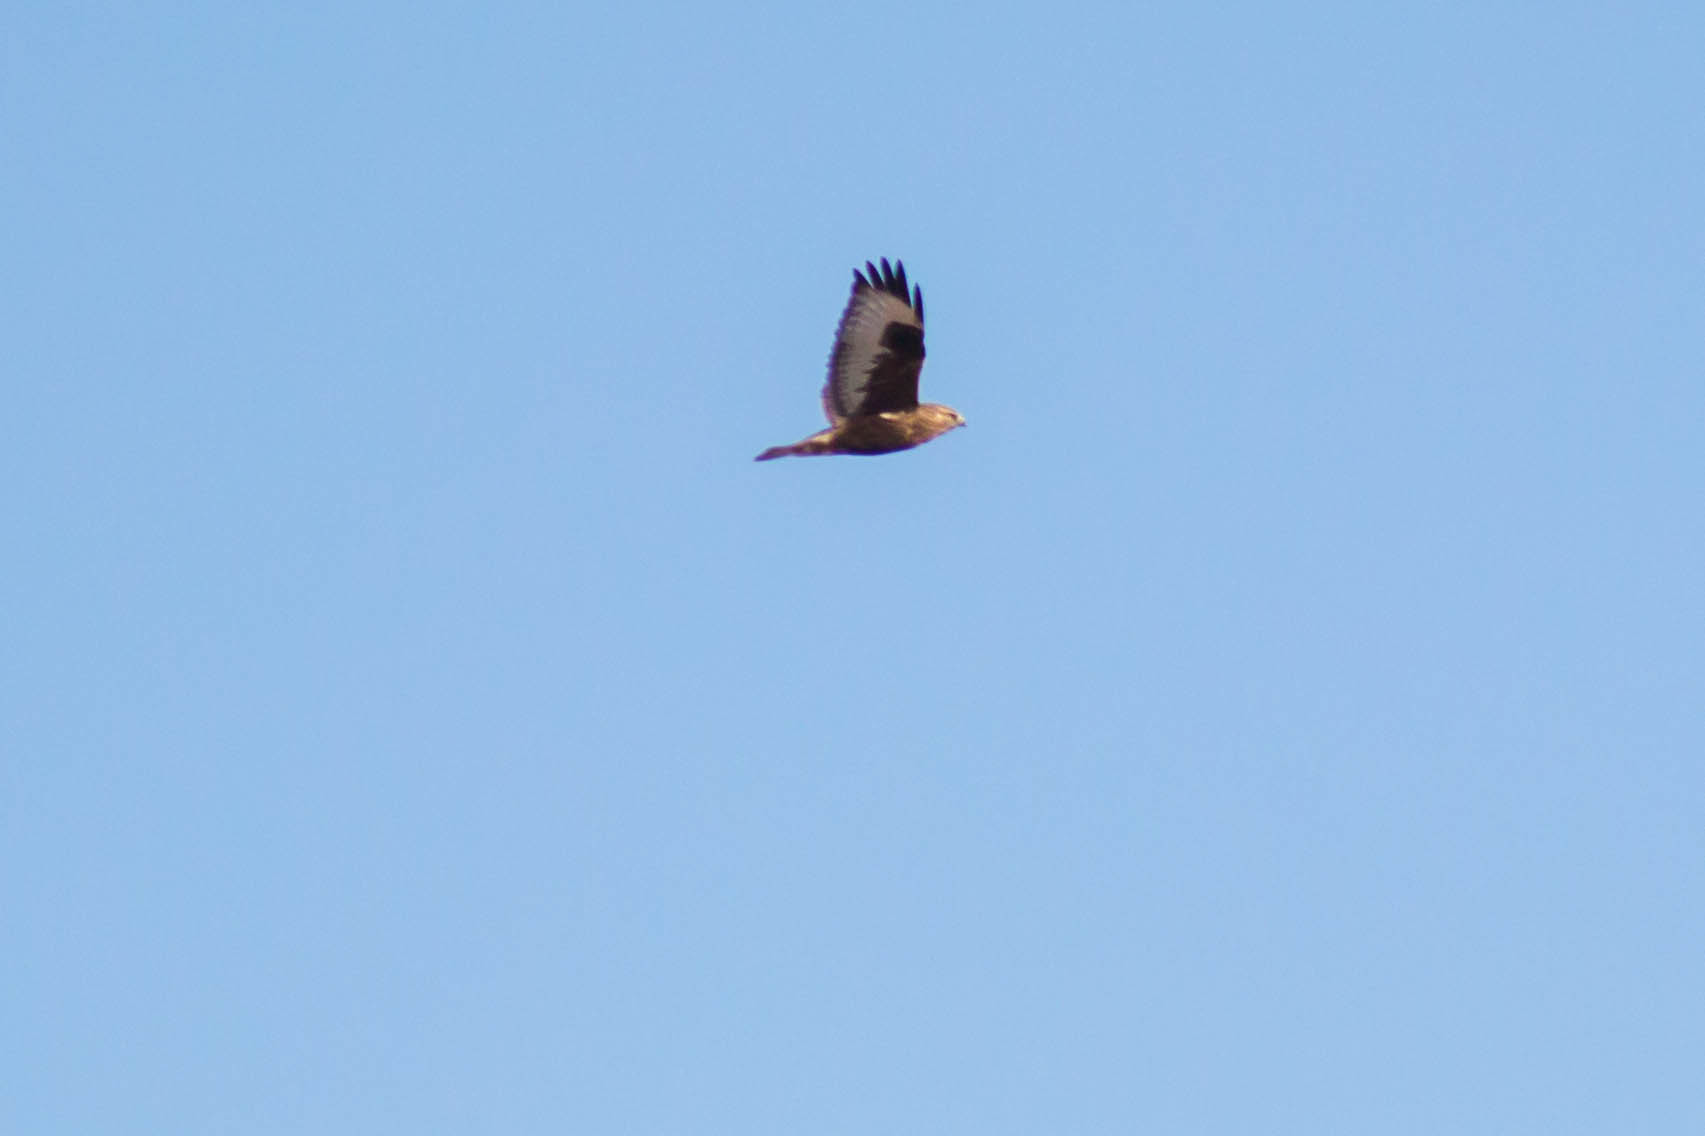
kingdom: Animalia
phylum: Chordata
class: Aves
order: Accipitriformes
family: Accipitridae
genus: Buteo
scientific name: Buteo lagopus
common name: Rough-legged buzzard
